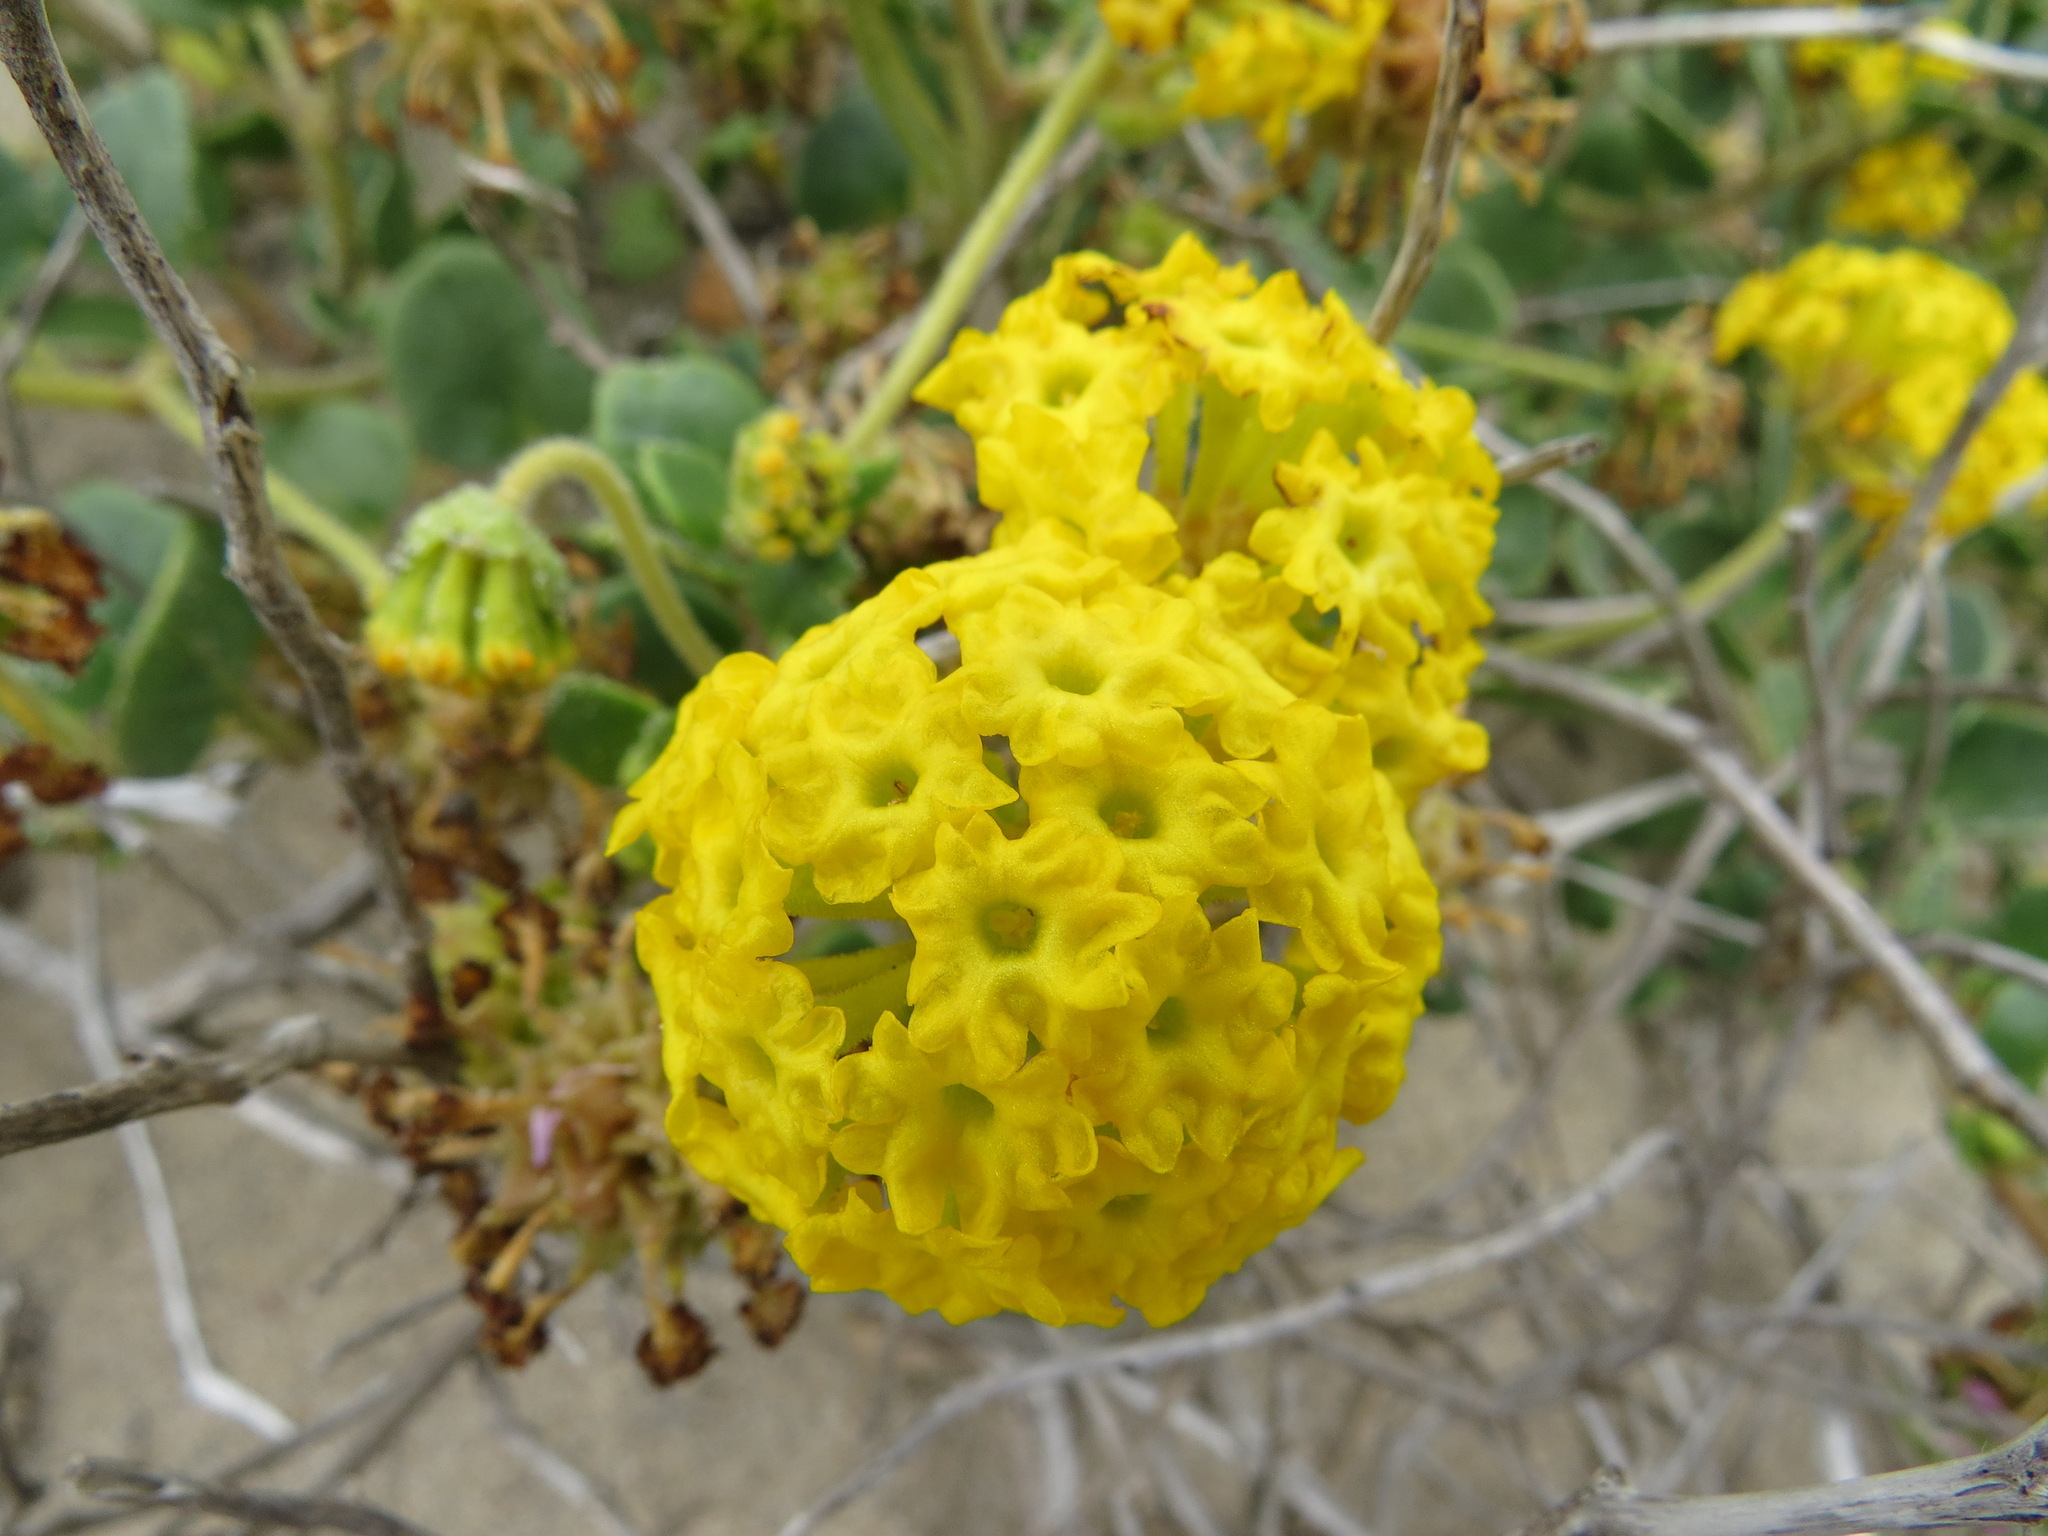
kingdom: Plantae
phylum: Tracheophyta
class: Magnoliopsida
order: Caryophyllales
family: Nyctaginaceae
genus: Abronia
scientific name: Abronia latifolia
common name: Yellow sand-verbena
